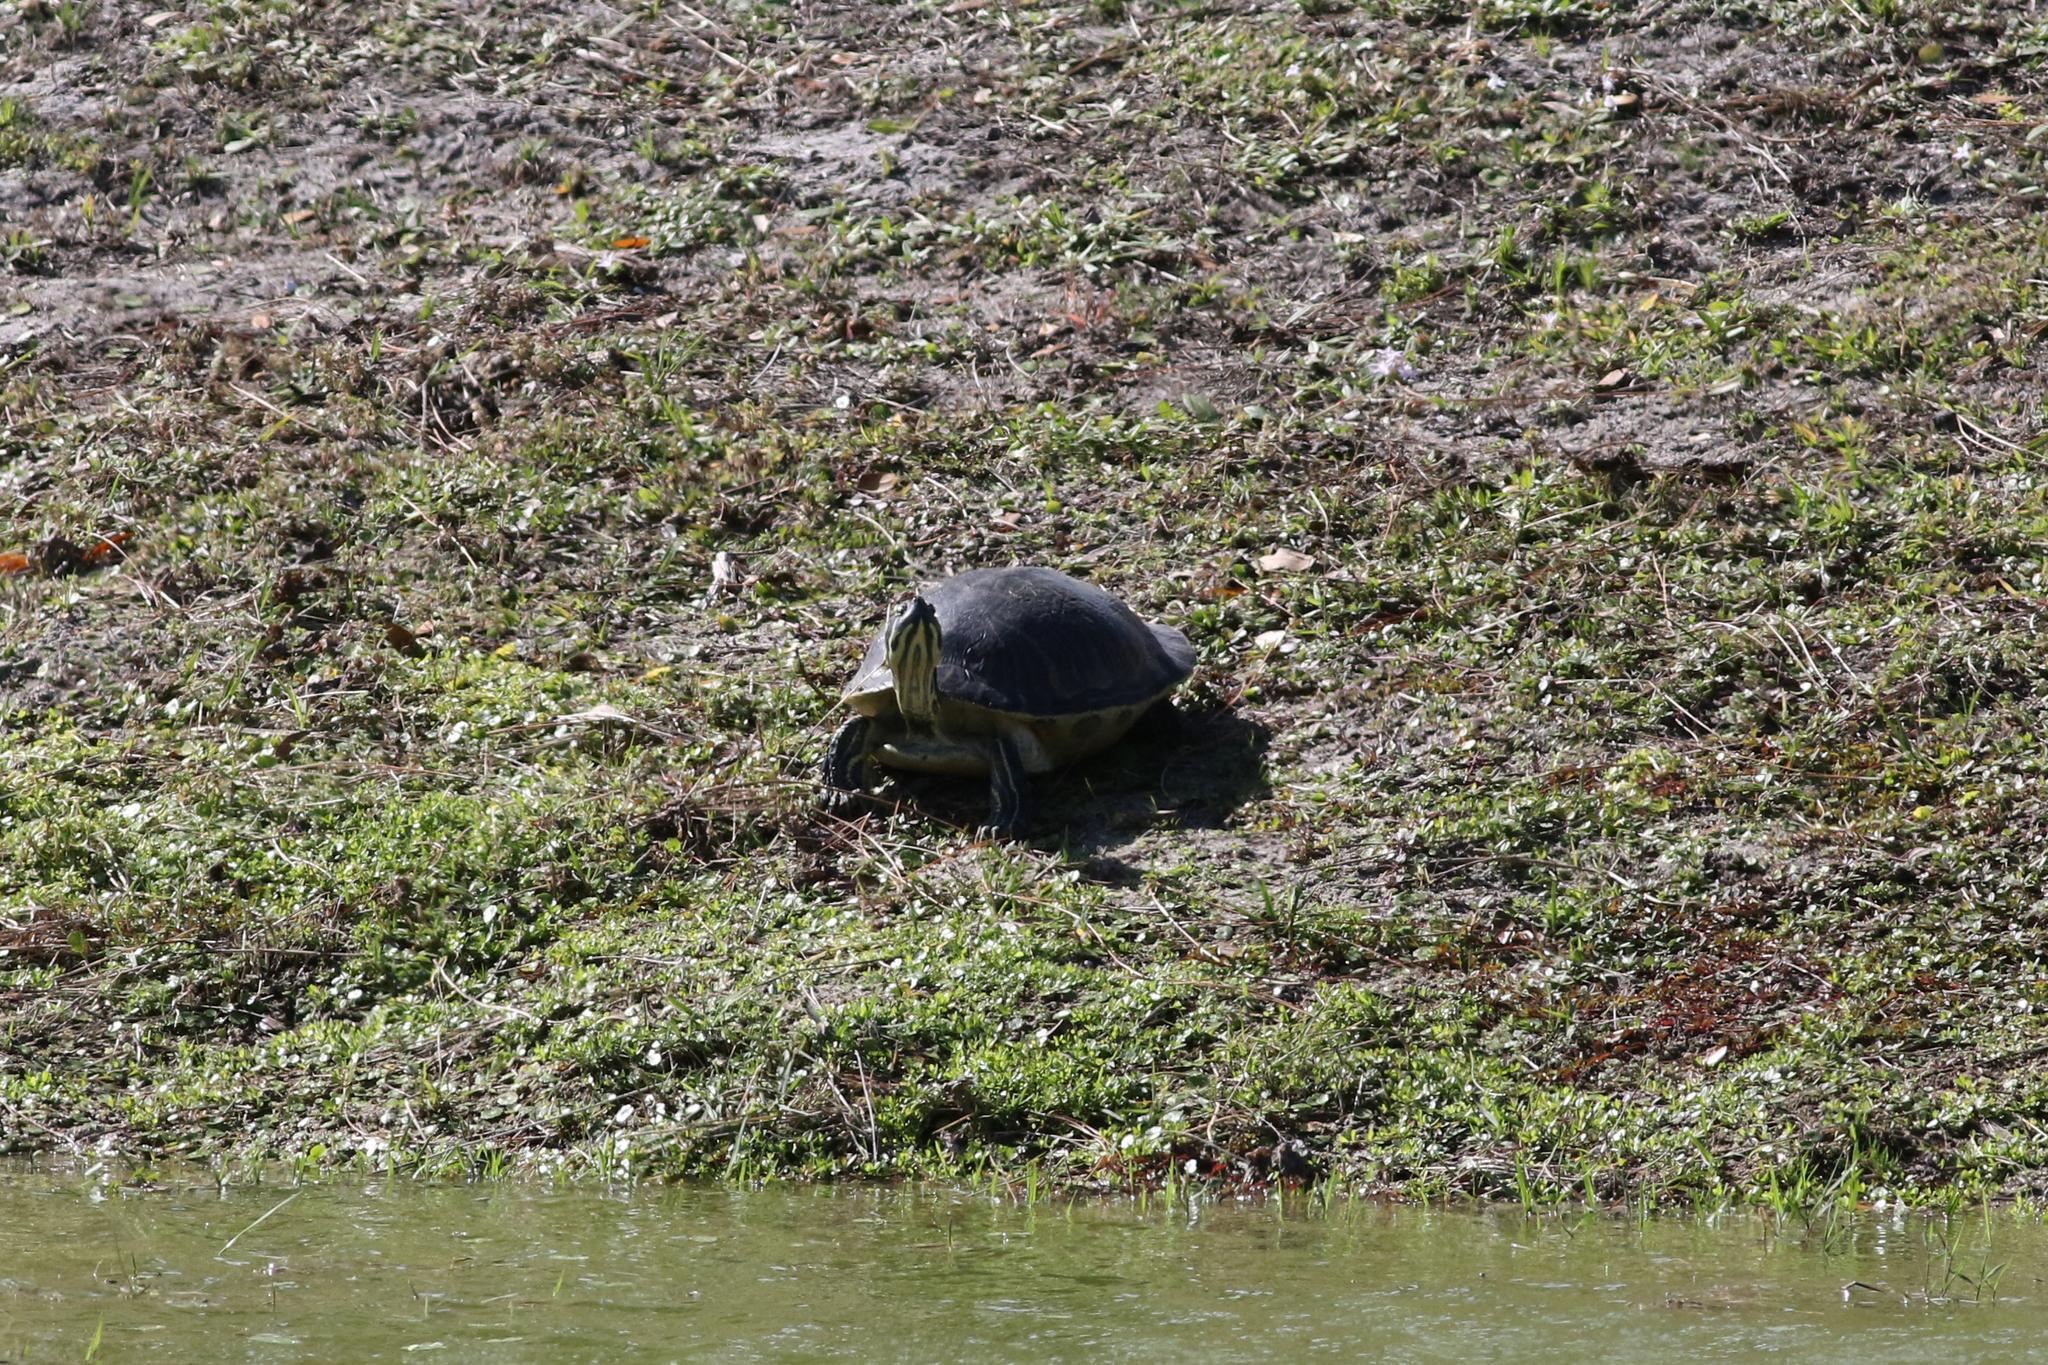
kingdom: Animalia
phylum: Chordata
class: Testudines
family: Emydidae
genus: Pseudemys
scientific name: Pseudemys peninsularis
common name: Peninsula cooter
